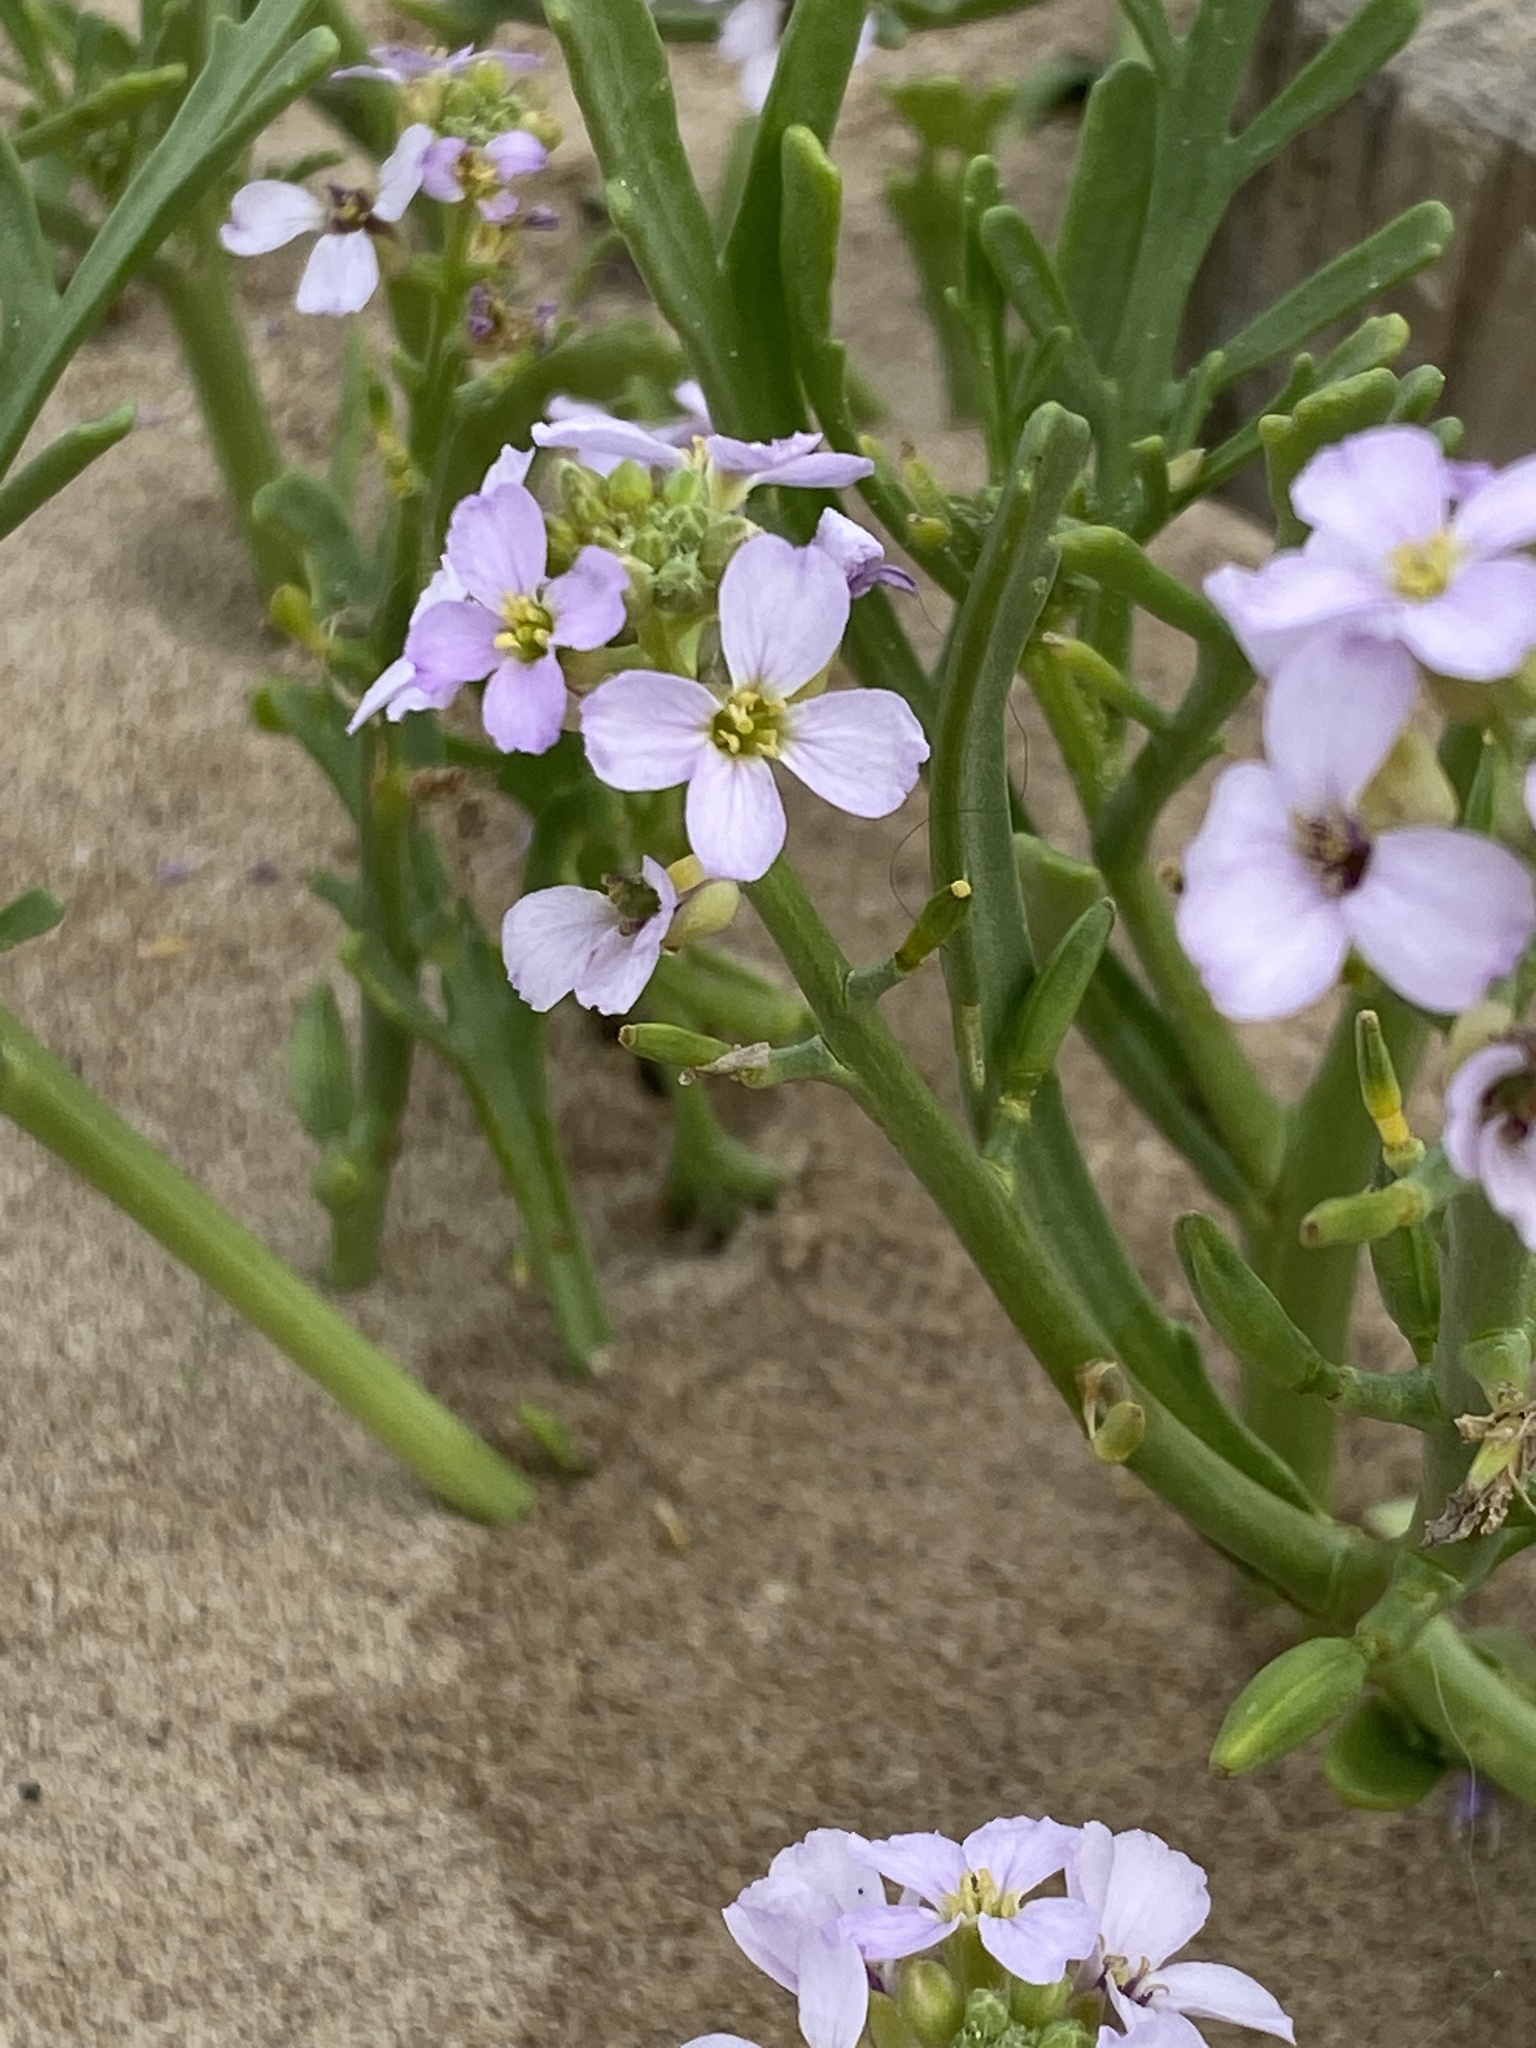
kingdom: Plantae
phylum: Tracheophyta
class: Magnoliopsida
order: Brassicales
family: Brassicaceae
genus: Cakile
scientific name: Cakile maritima
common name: Sea rocket
